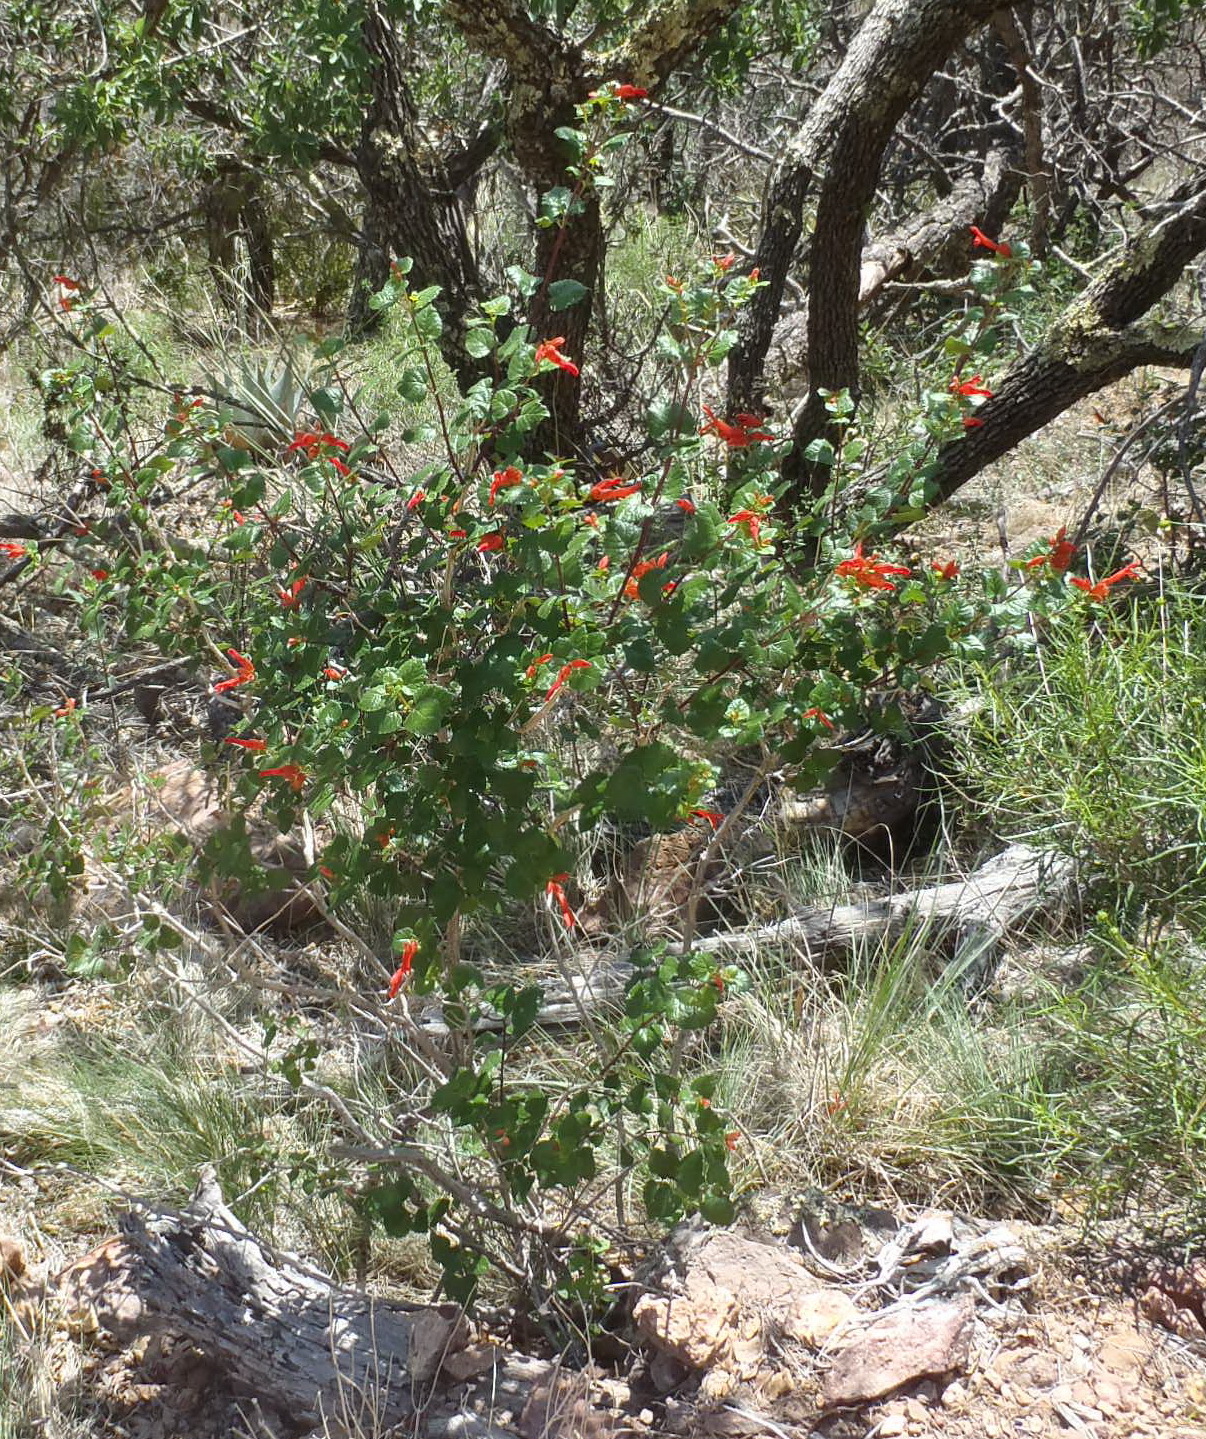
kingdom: Plantae
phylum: Tracheophyta
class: Magnoliopsida
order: Lamiales
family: Lamiaceae
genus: Salvia
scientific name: Salvia regla
